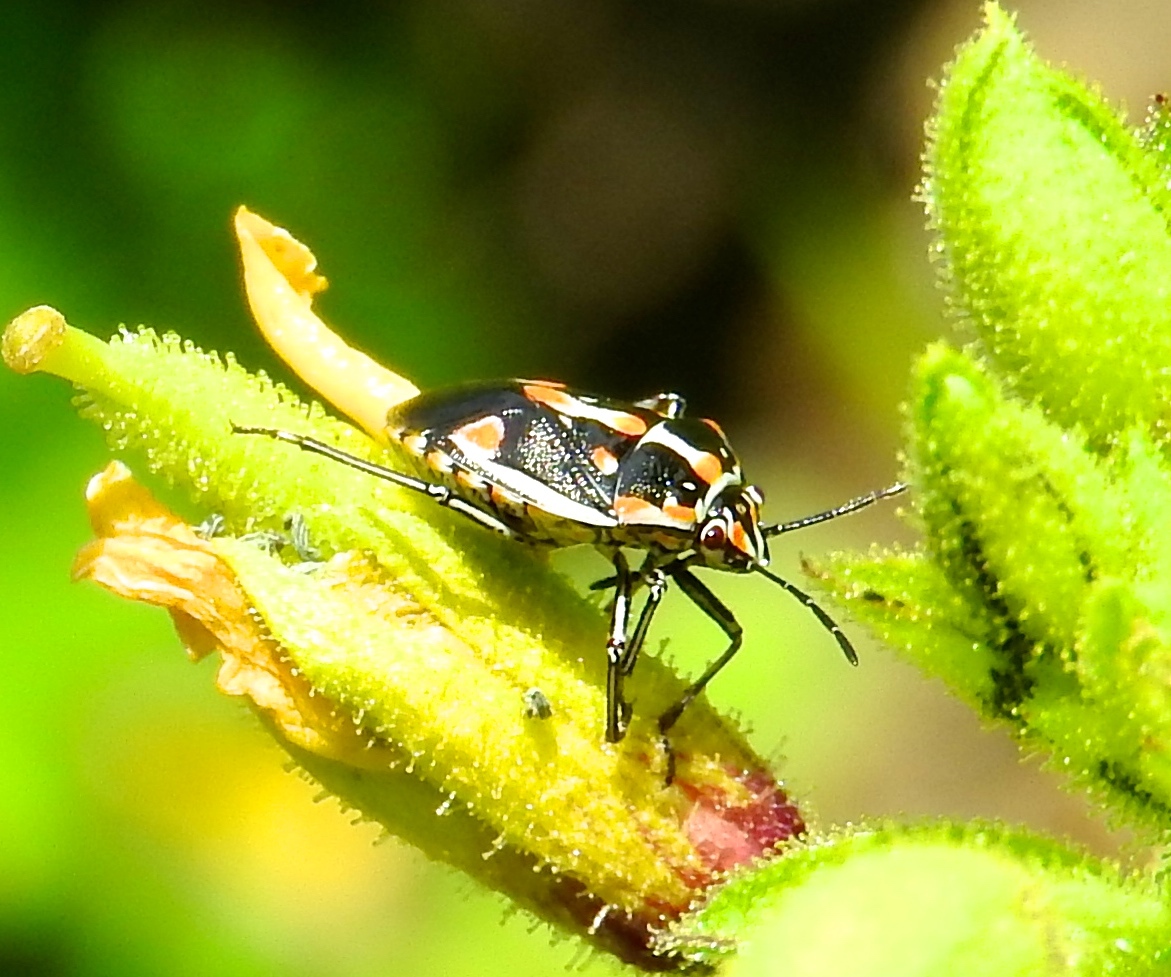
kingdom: Animalia
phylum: Arthropoda
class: Insecta
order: Hemiptera
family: Pentatomidae
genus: Bagrada
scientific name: Bagrada hilaris
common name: Bagrada bug
